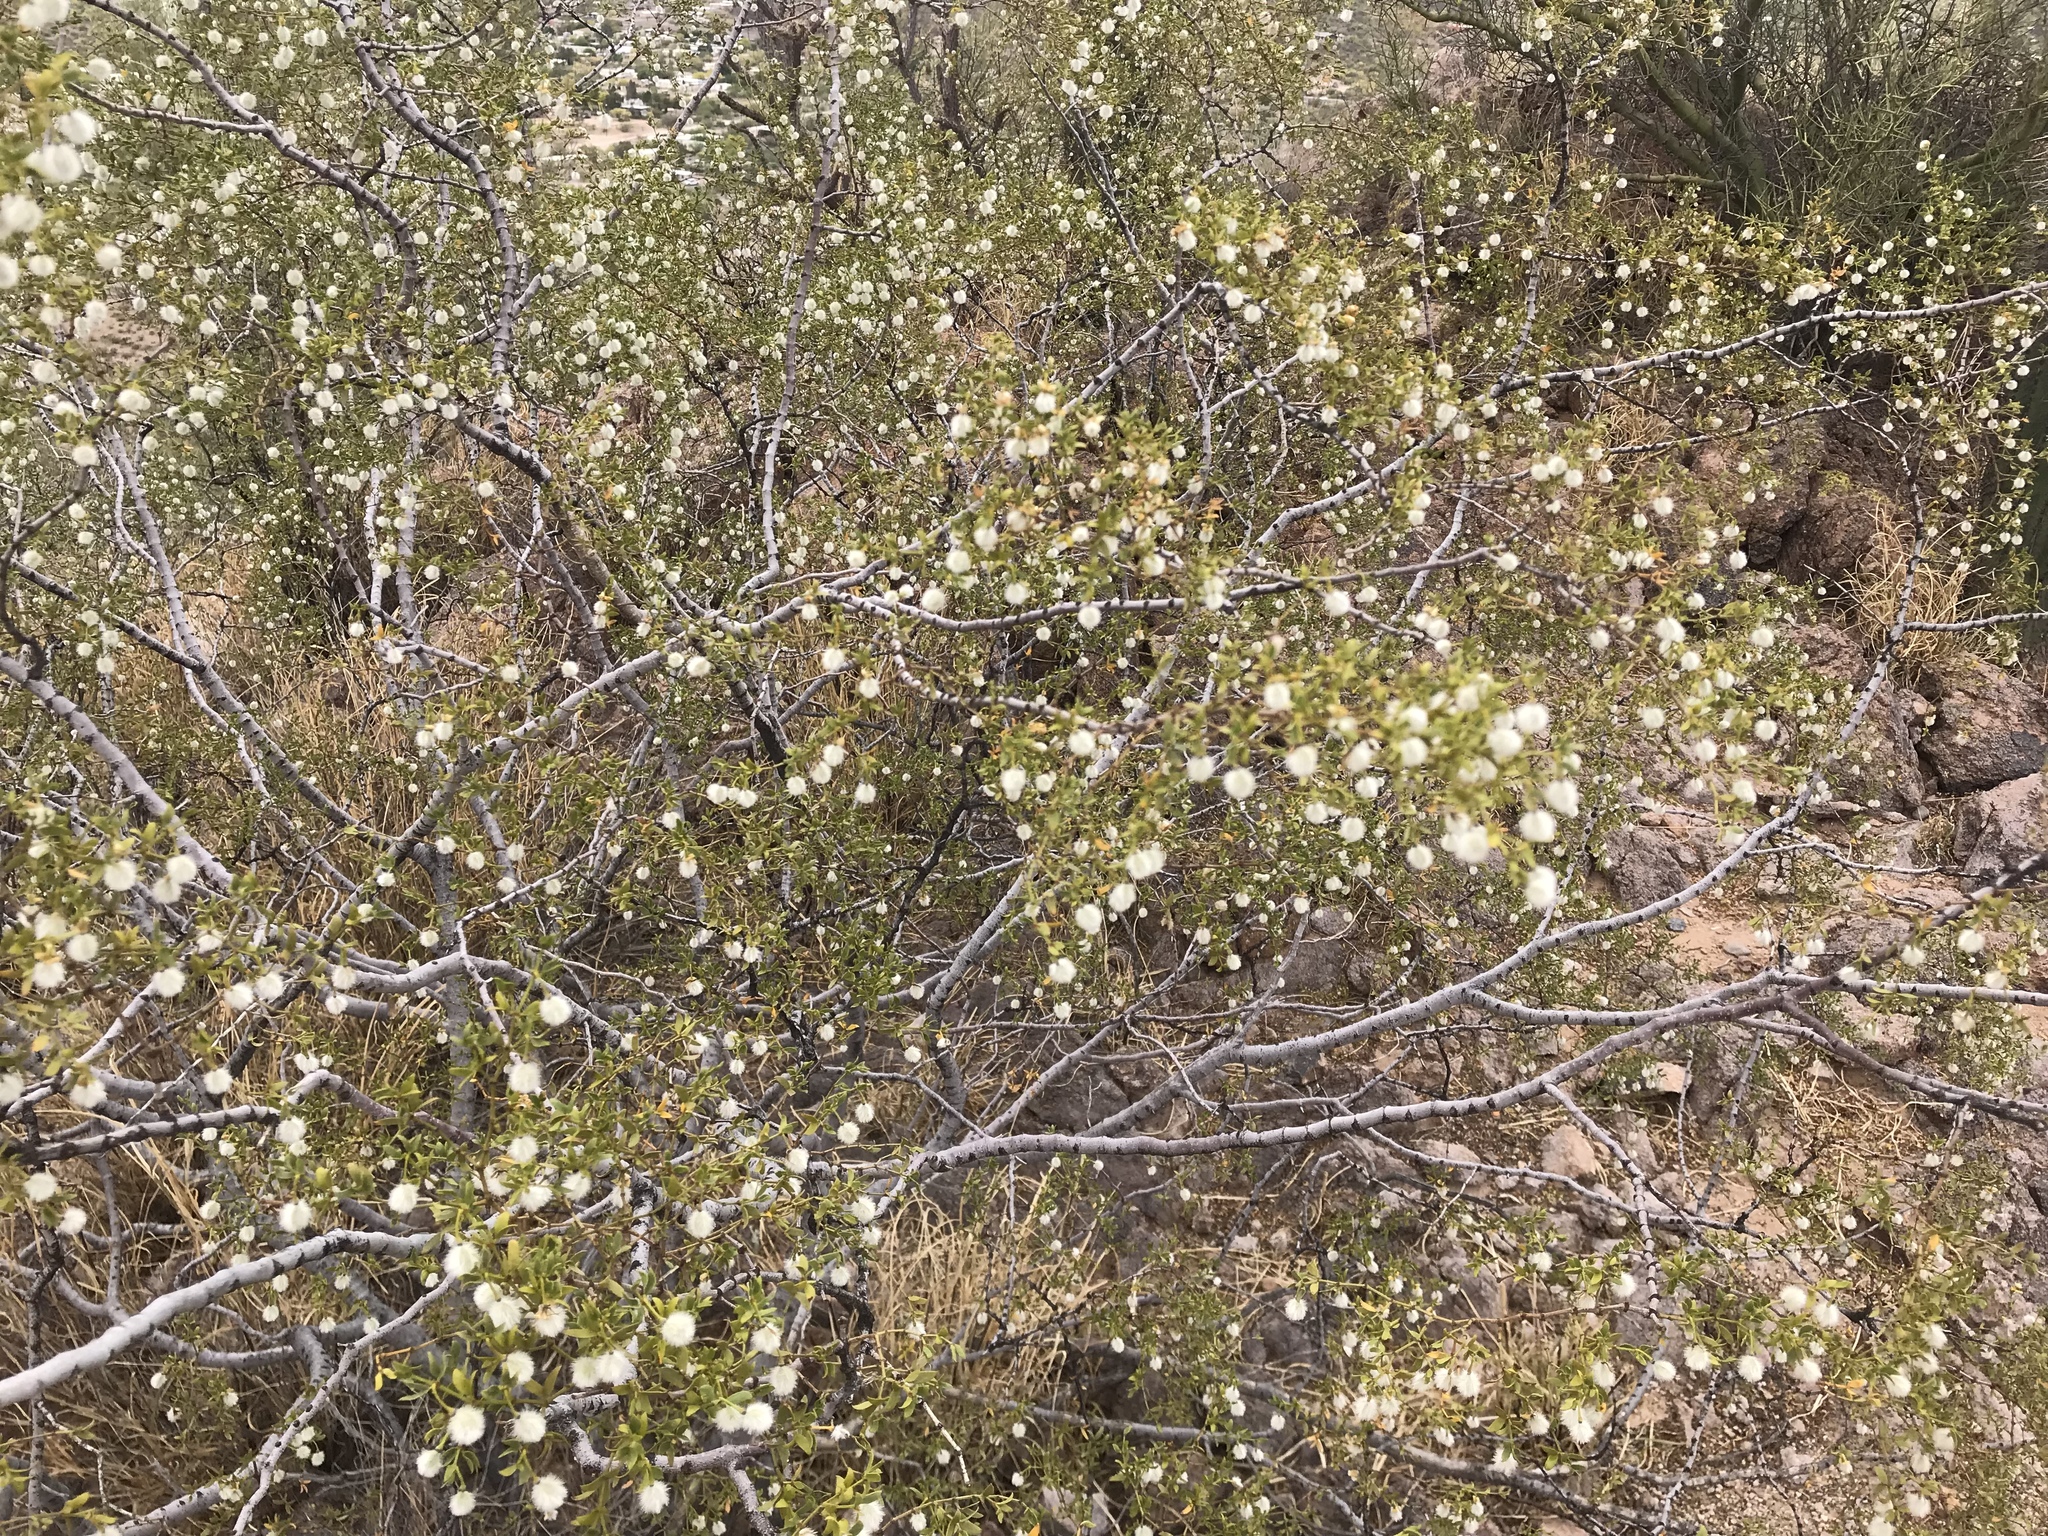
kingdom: Plantae
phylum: Tracheophyta
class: Magnoliopsida
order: Zygophyllales
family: Zygophyllaceae
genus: Larrea
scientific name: Larrea tridentata
